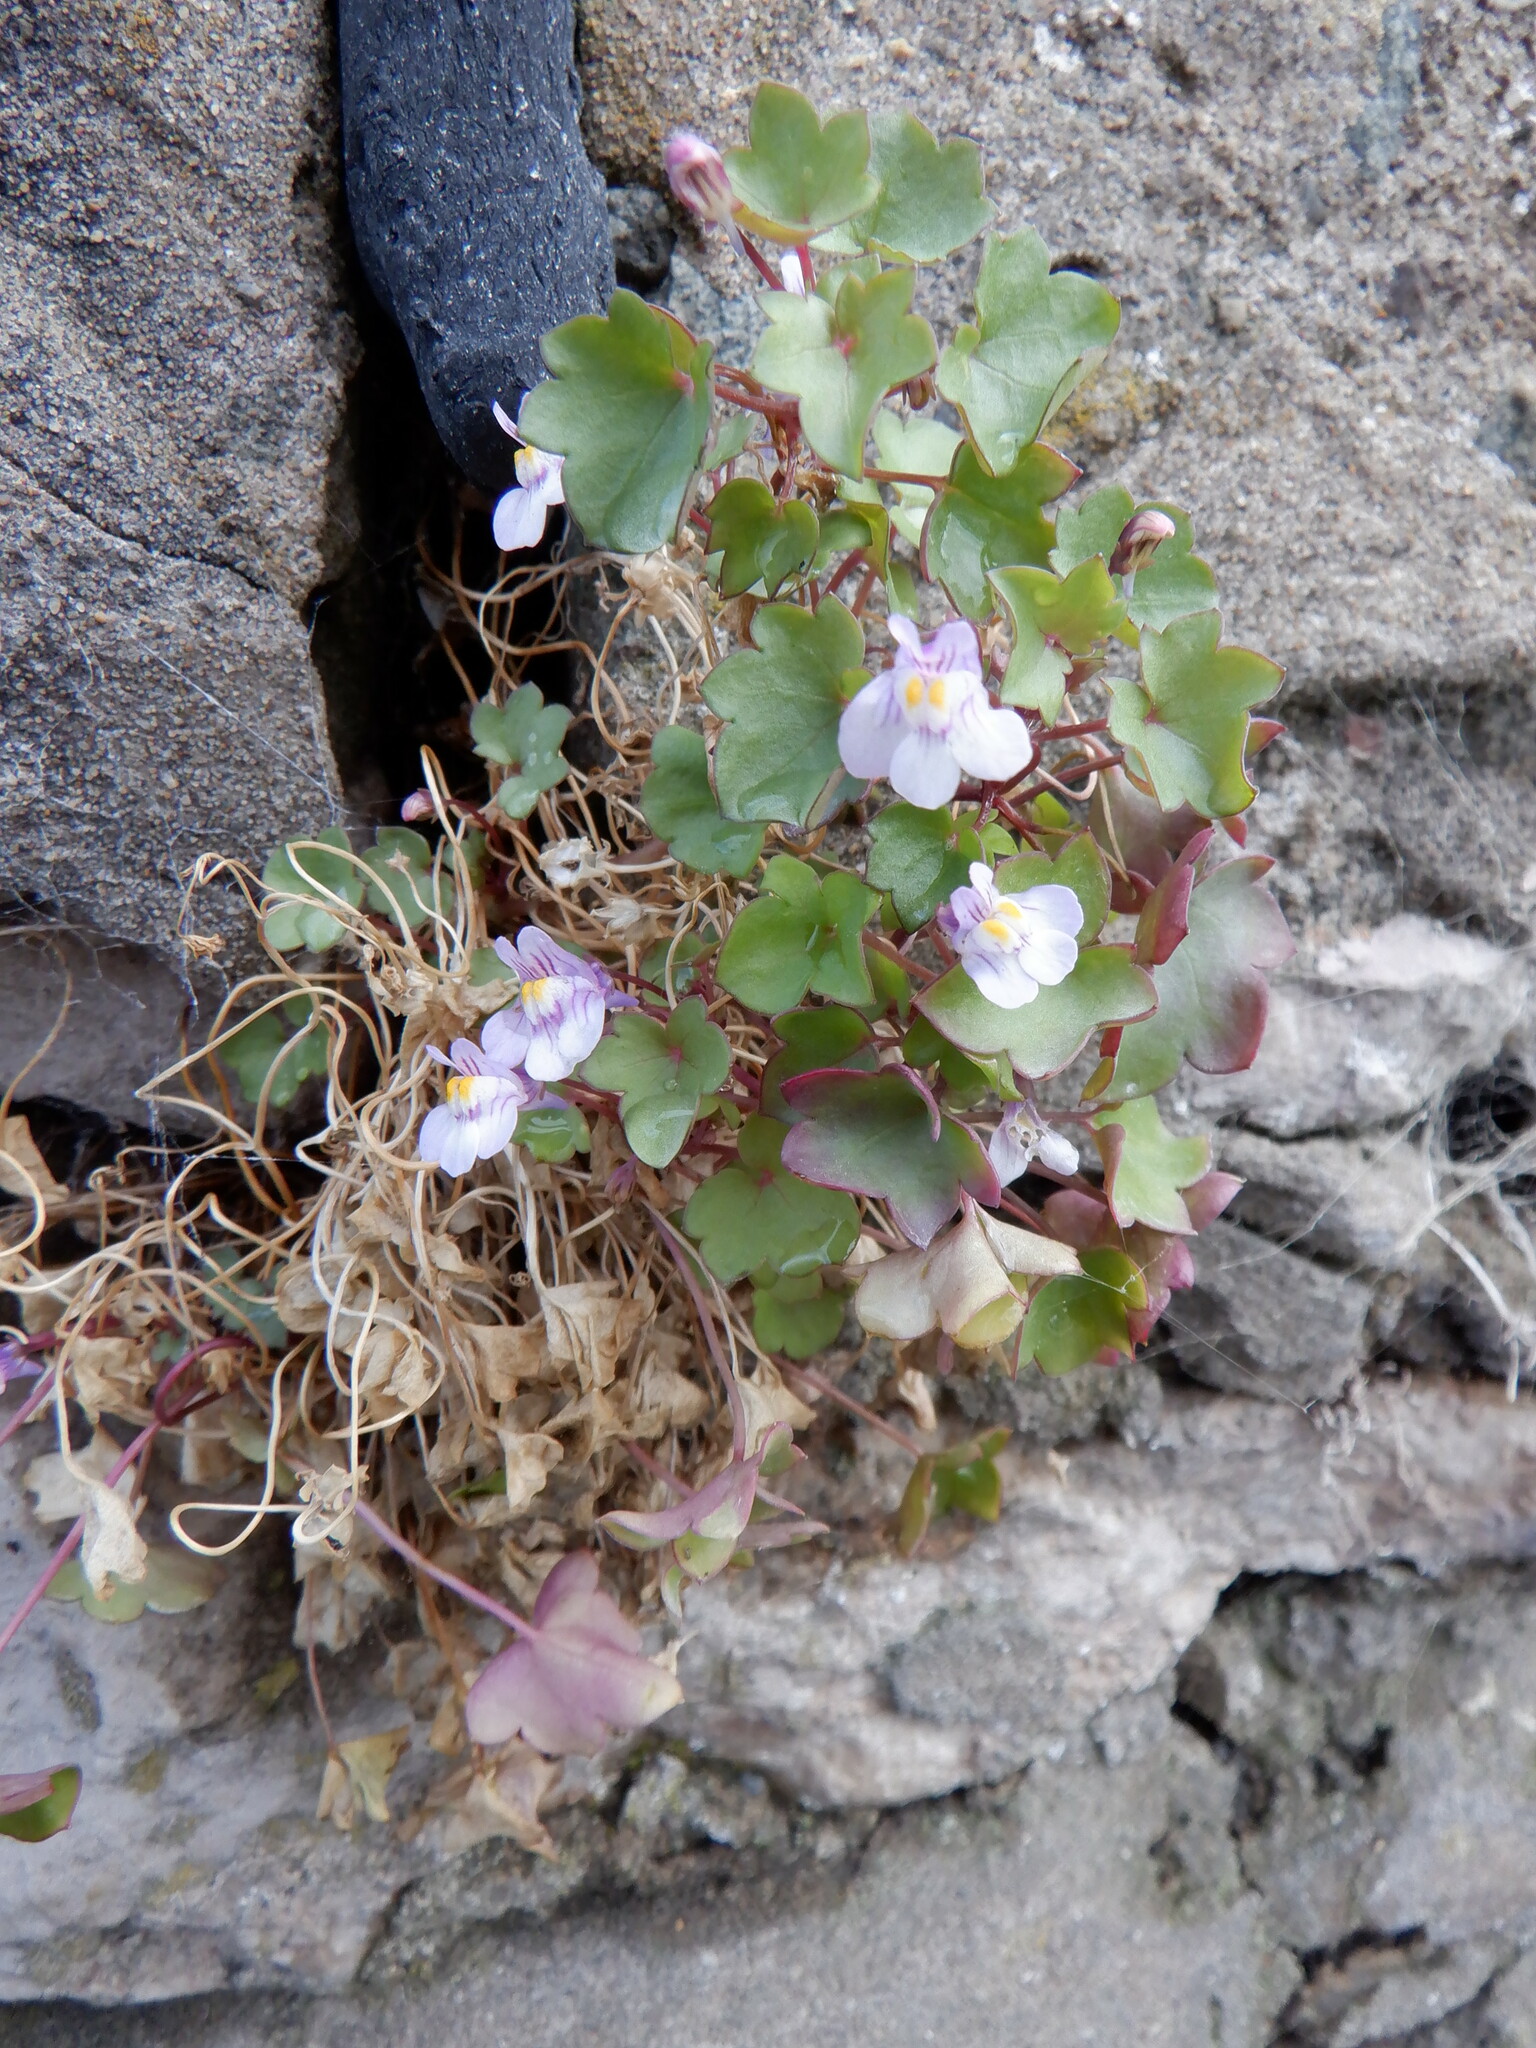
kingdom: Plantae
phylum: Tracheophyta
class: Magnoliopsida
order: Lamiales
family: Plantaginaceae
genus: Cymbalaria
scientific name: Cymbalaria muralis
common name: Ivy-leaved toadflax
